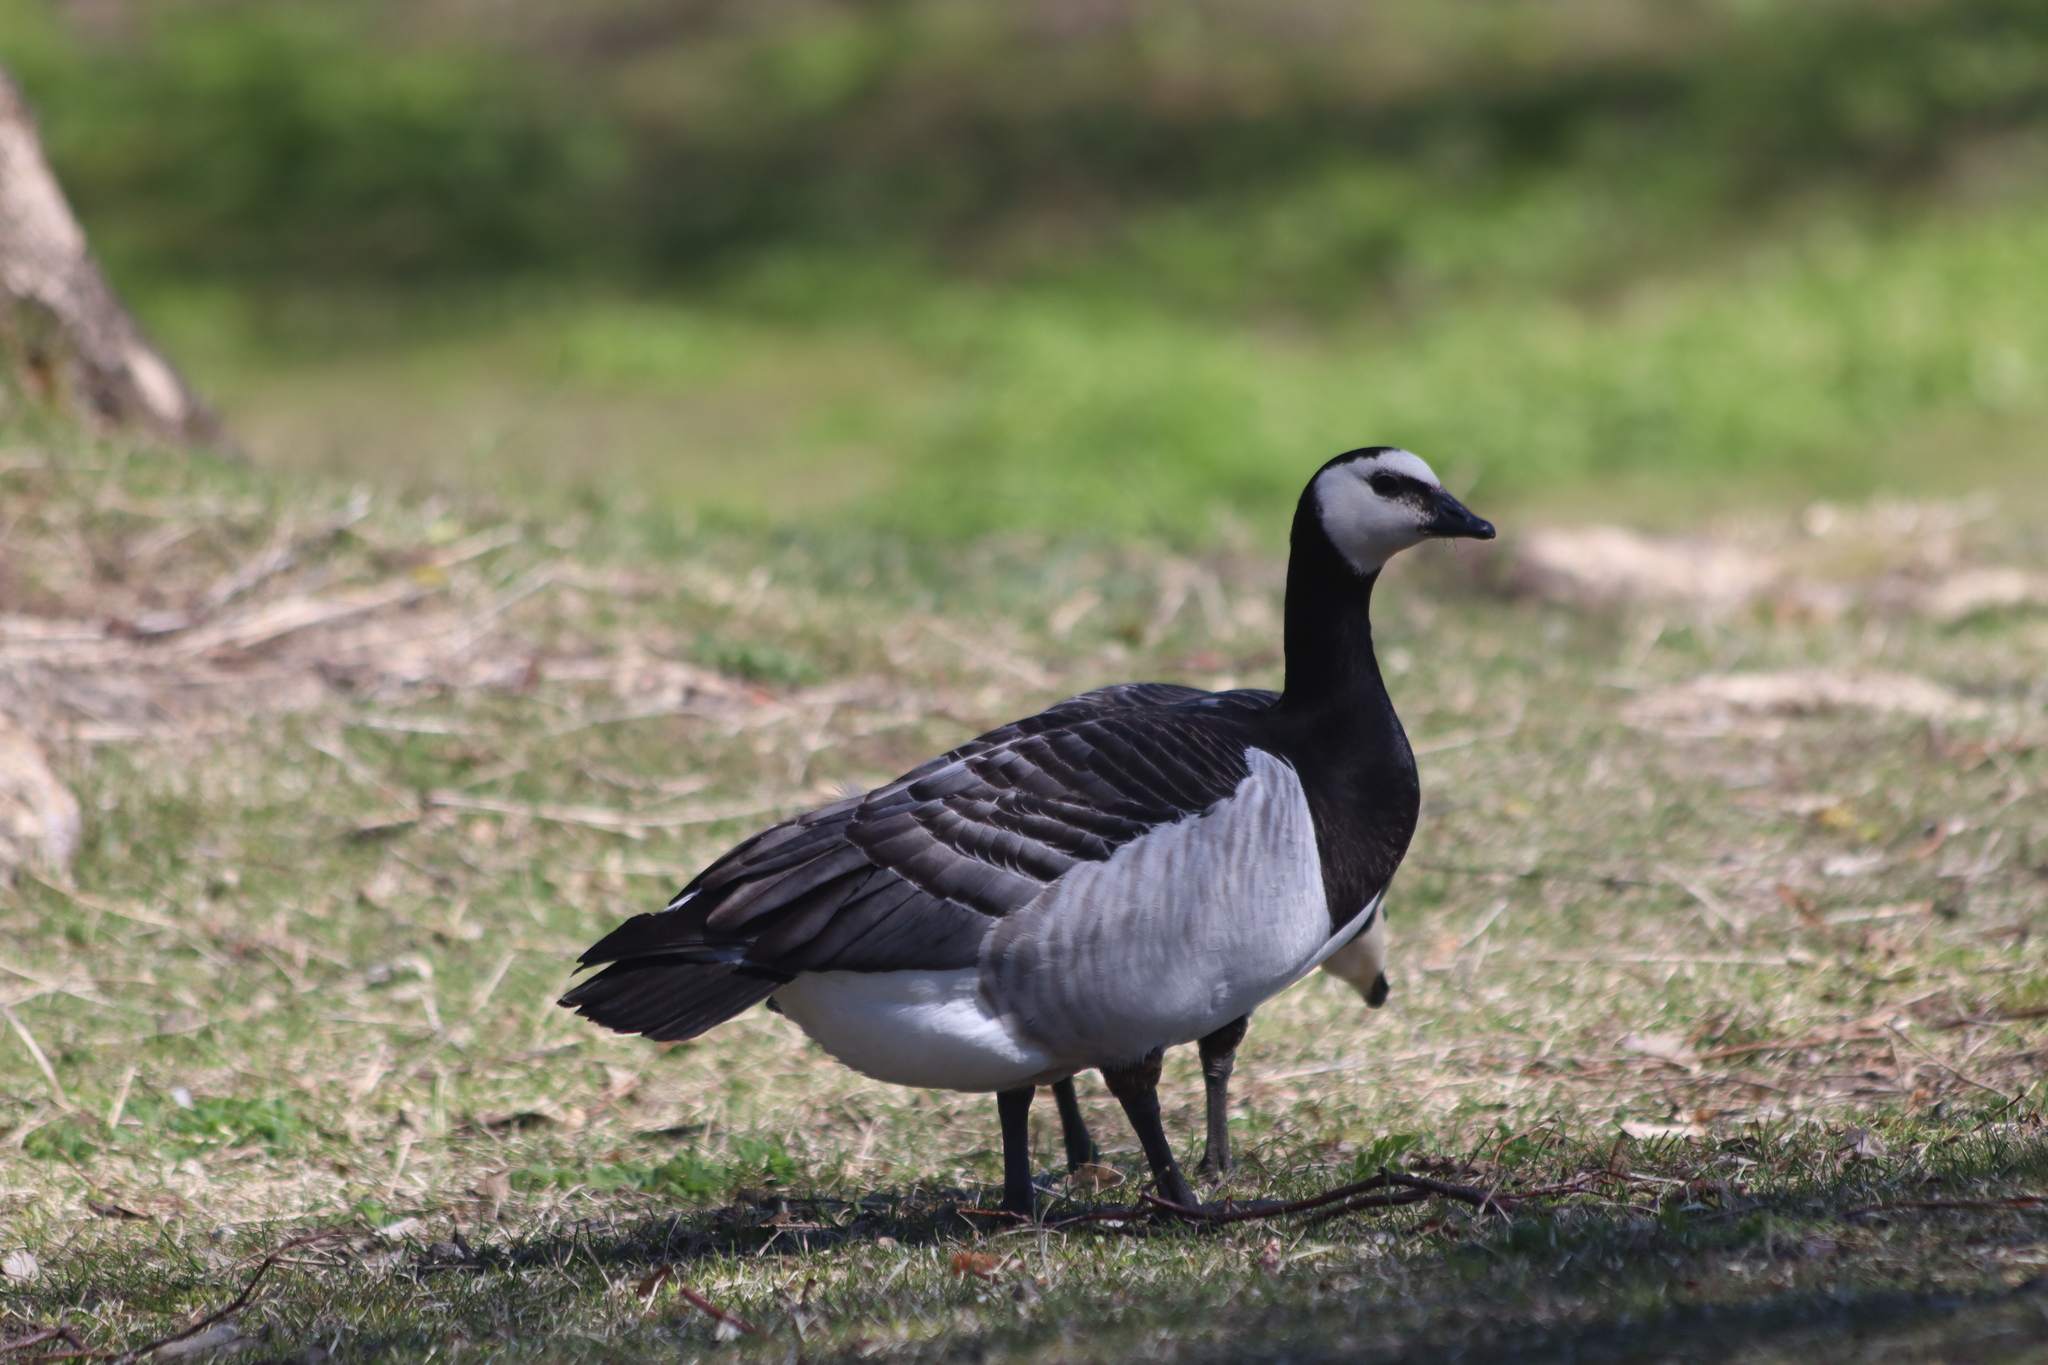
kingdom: Animalia
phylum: Chordata
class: Aves
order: Anseriformes
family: Anatidae
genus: Branta
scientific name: Branta leucopsis
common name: Barnacle goose
